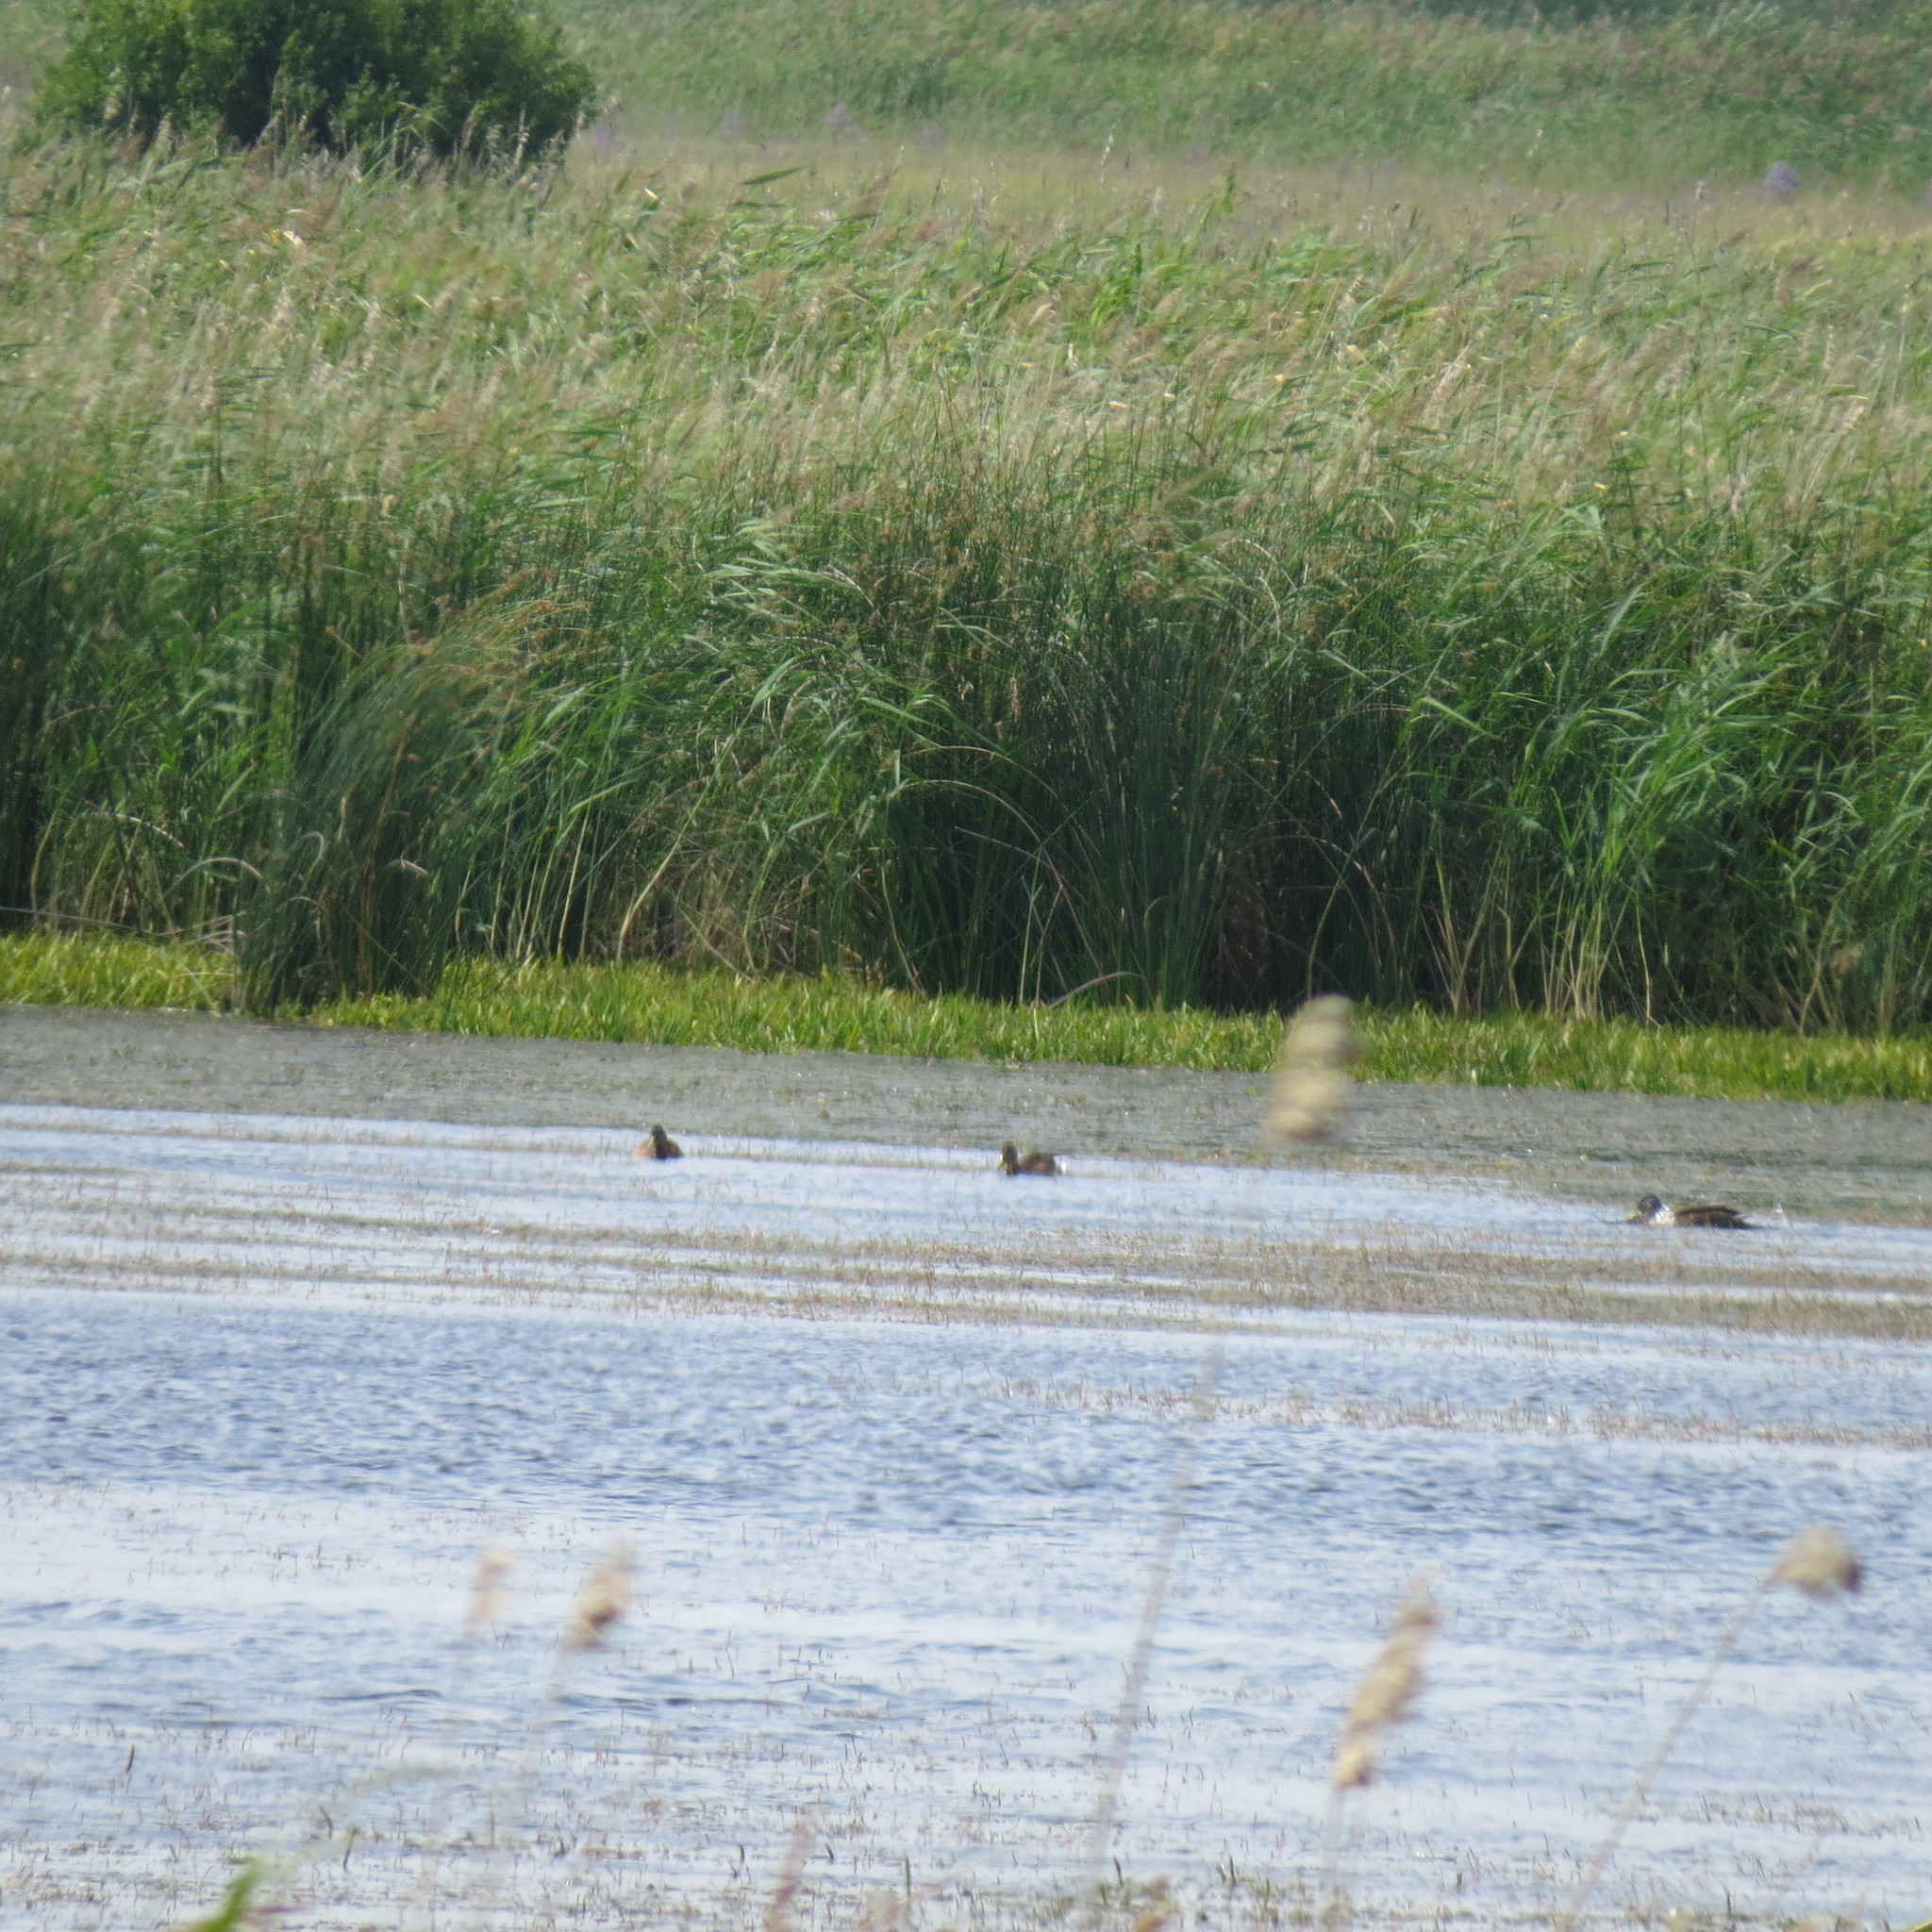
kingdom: Animalia
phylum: Chordata
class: Aves
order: Anseriformes
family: Anatidae
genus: Anas
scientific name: Anas platyrhynchos
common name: Mallard
